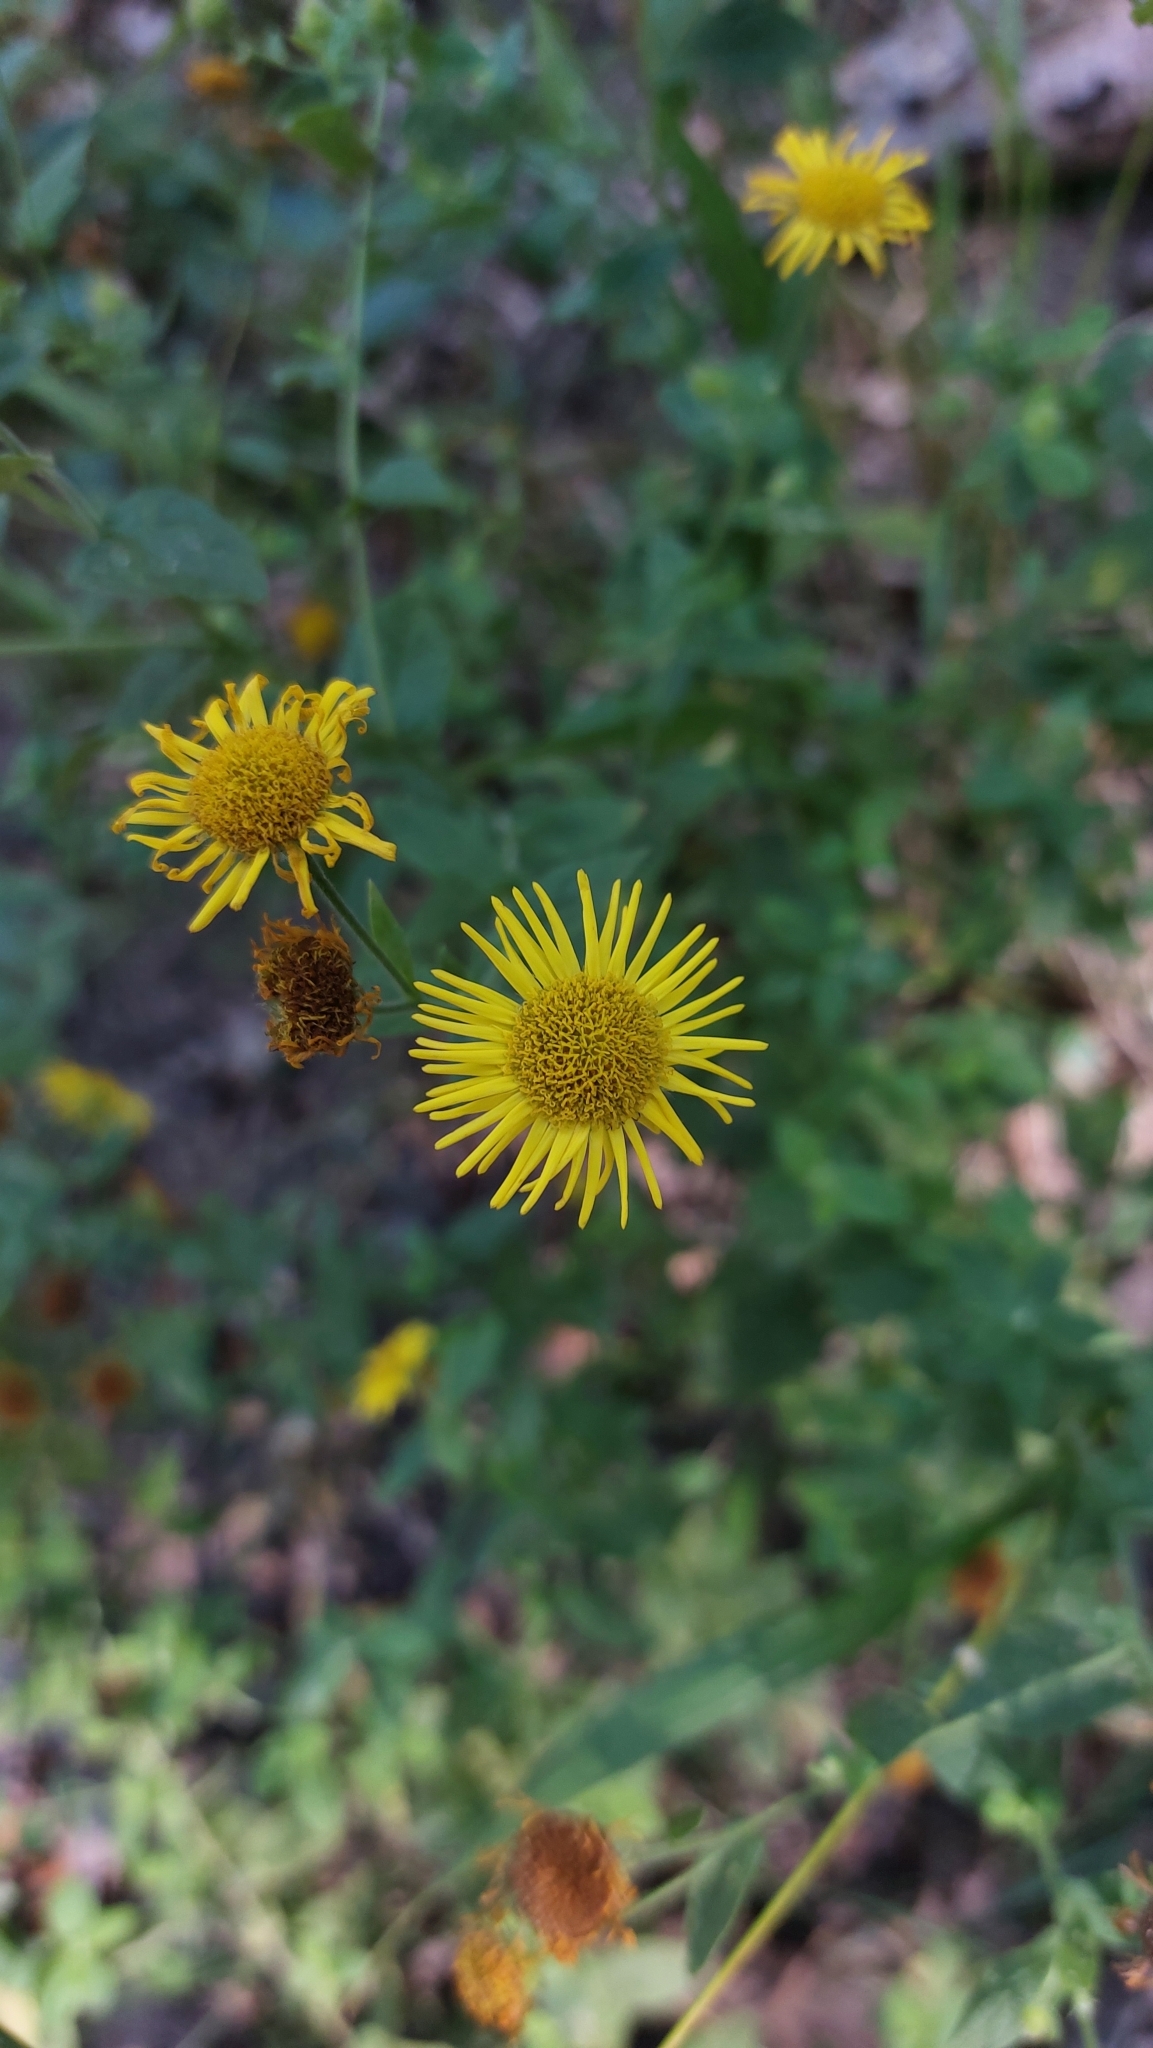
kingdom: Plantae
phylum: Tracheophyta
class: Magnoliopsida
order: Asterales
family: Asteraceae
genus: Pulicaria
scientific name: Pulicaria dysenterica
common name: Common fleabane
